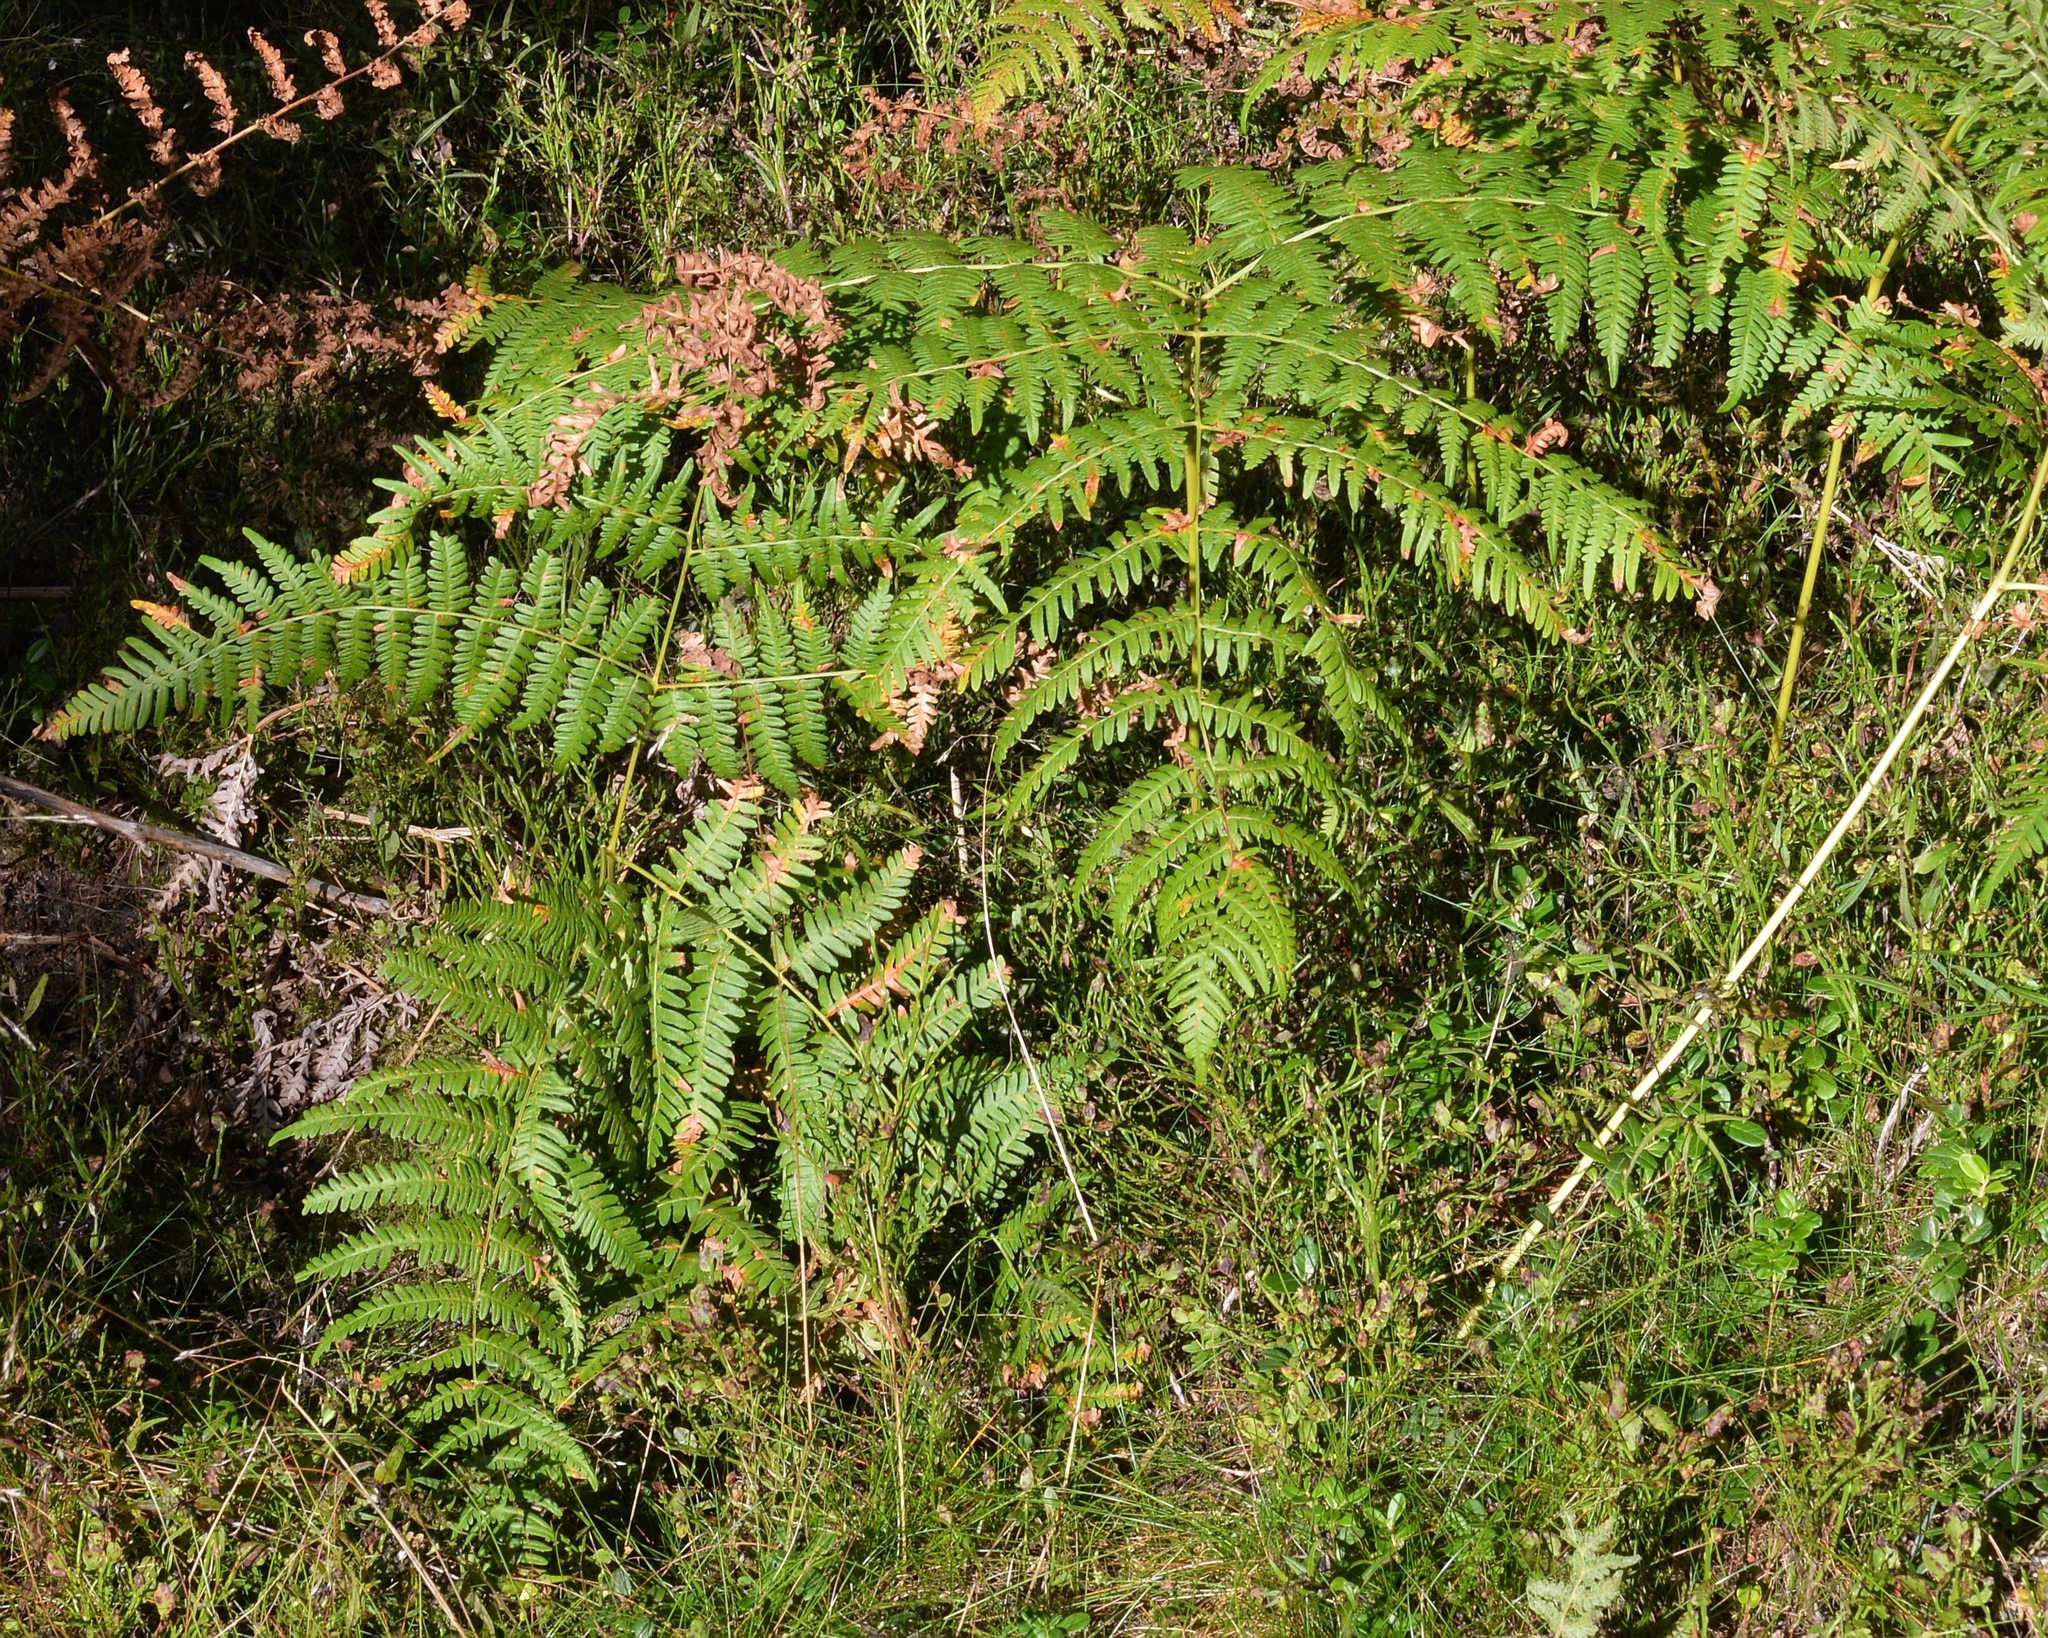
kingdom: Plantae
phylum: Tracheophyta
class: Polypodiopsida
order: Polypodiales
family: Dennstaedtiaceae
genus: Pteridium
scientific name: Pteridium aquilinum
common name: Bracken
